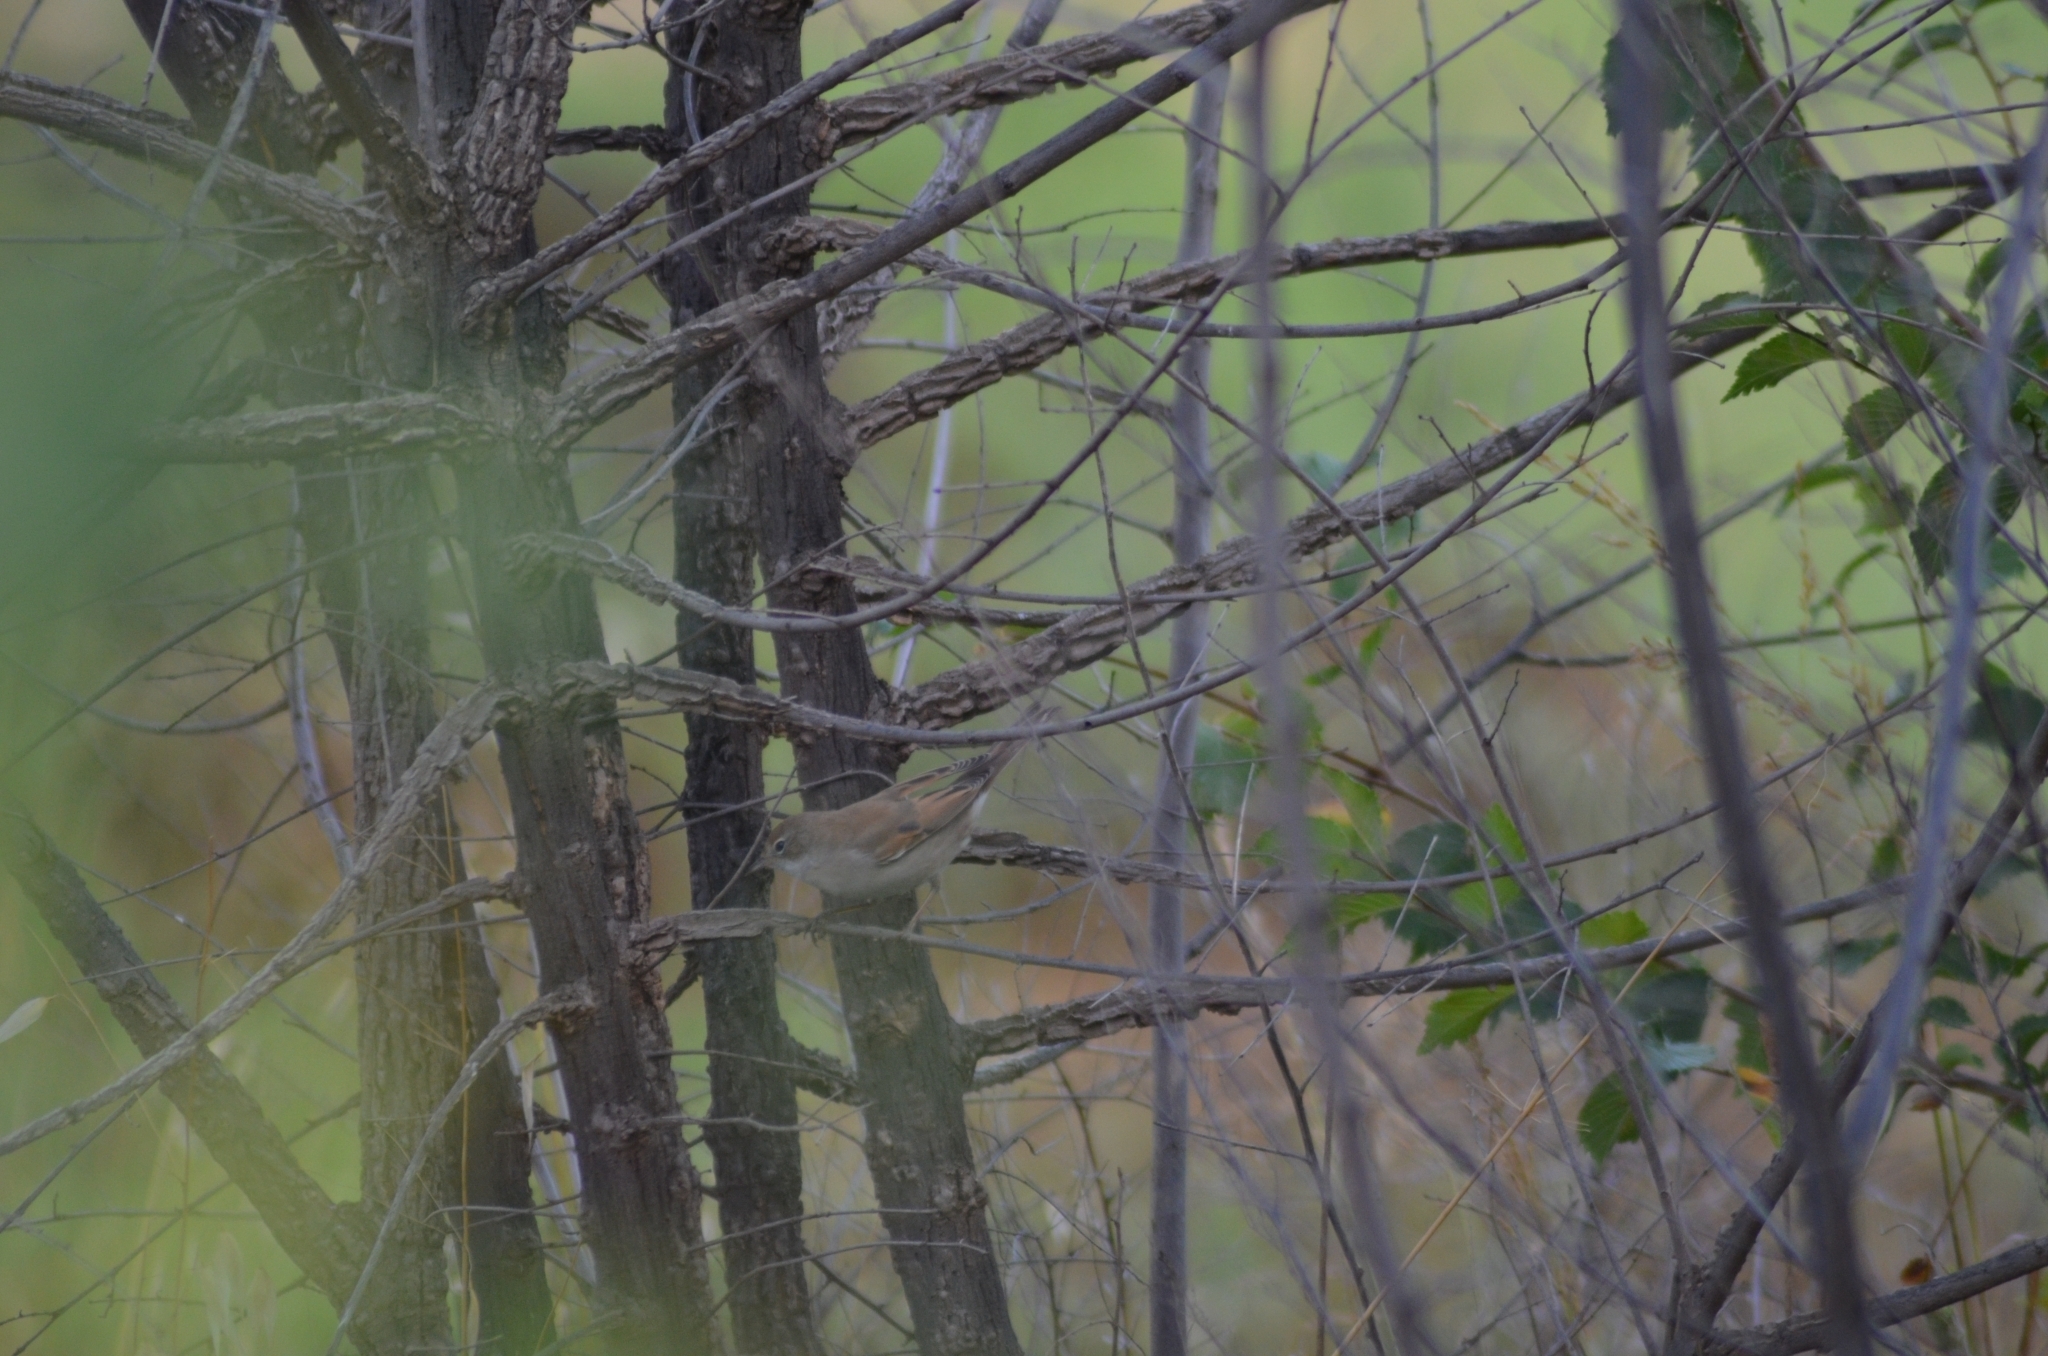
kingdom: Animalia
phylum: Chordata
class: Aves
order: Passeriformes
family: Sylviidae
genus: Sylvia
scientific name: Sylvia communis
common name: Common whitethroat
